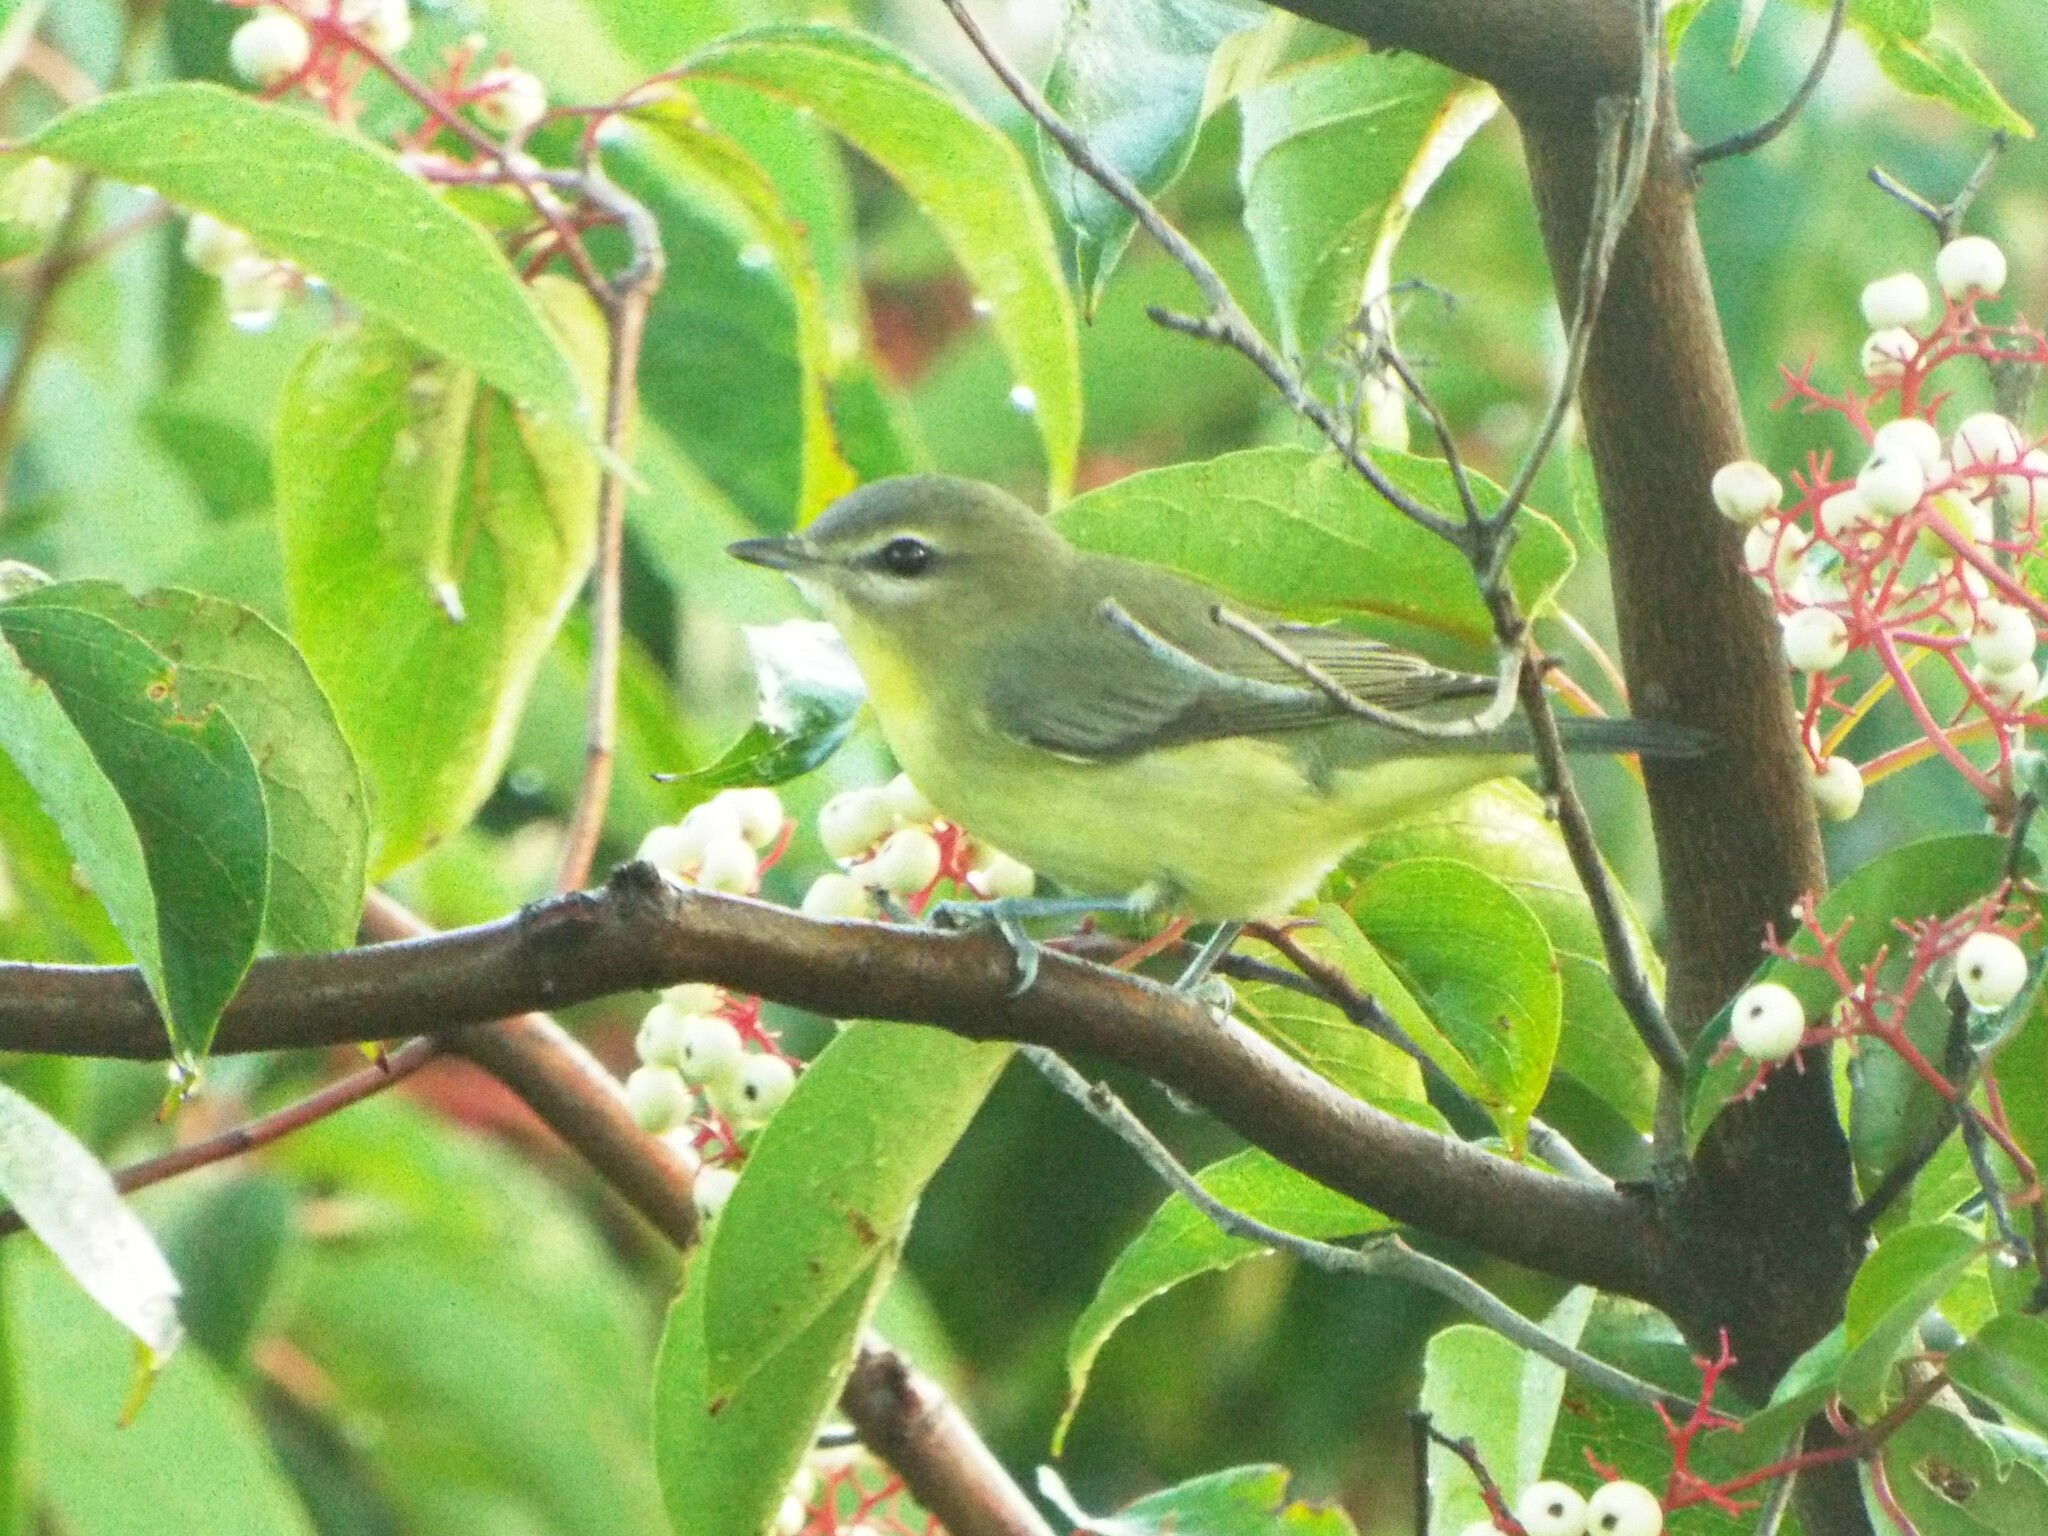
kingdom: Animalia
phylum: Chordata
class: Aves
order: Passeriformes
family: Vireonidae
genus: Vireo
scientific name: Vireo philadelphicus
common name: Philadelphia vireo
